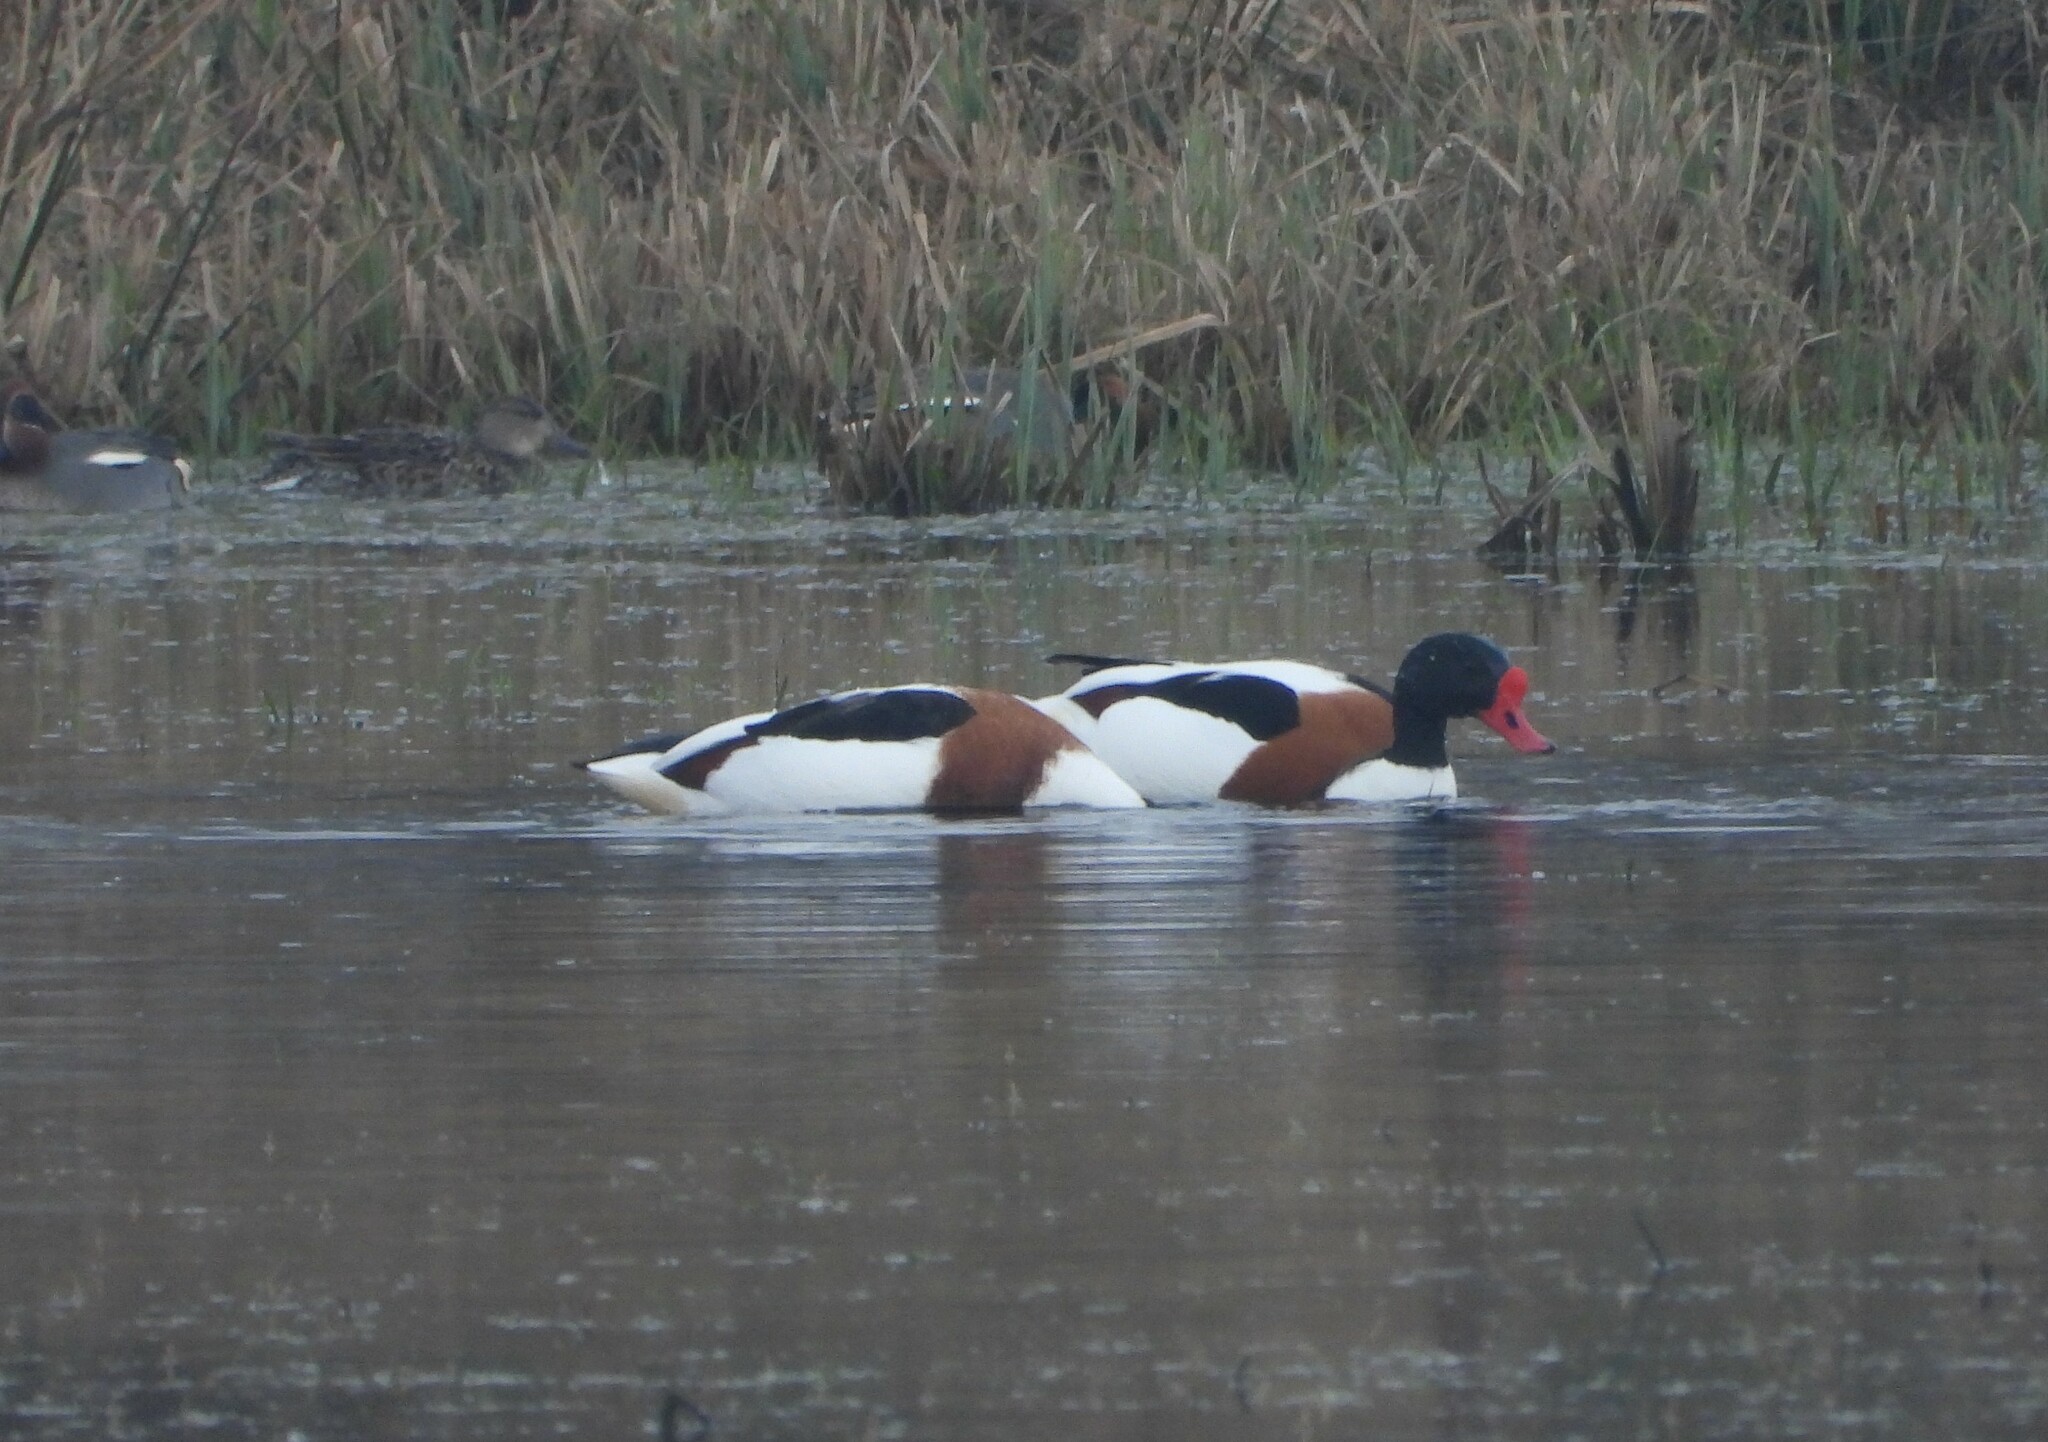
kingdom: Animalia
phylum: Chordata
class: Aves
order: Anseriformes
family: Anatidae
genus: Tadorna
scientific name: Tadorna tadorna
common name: Common shelduck
